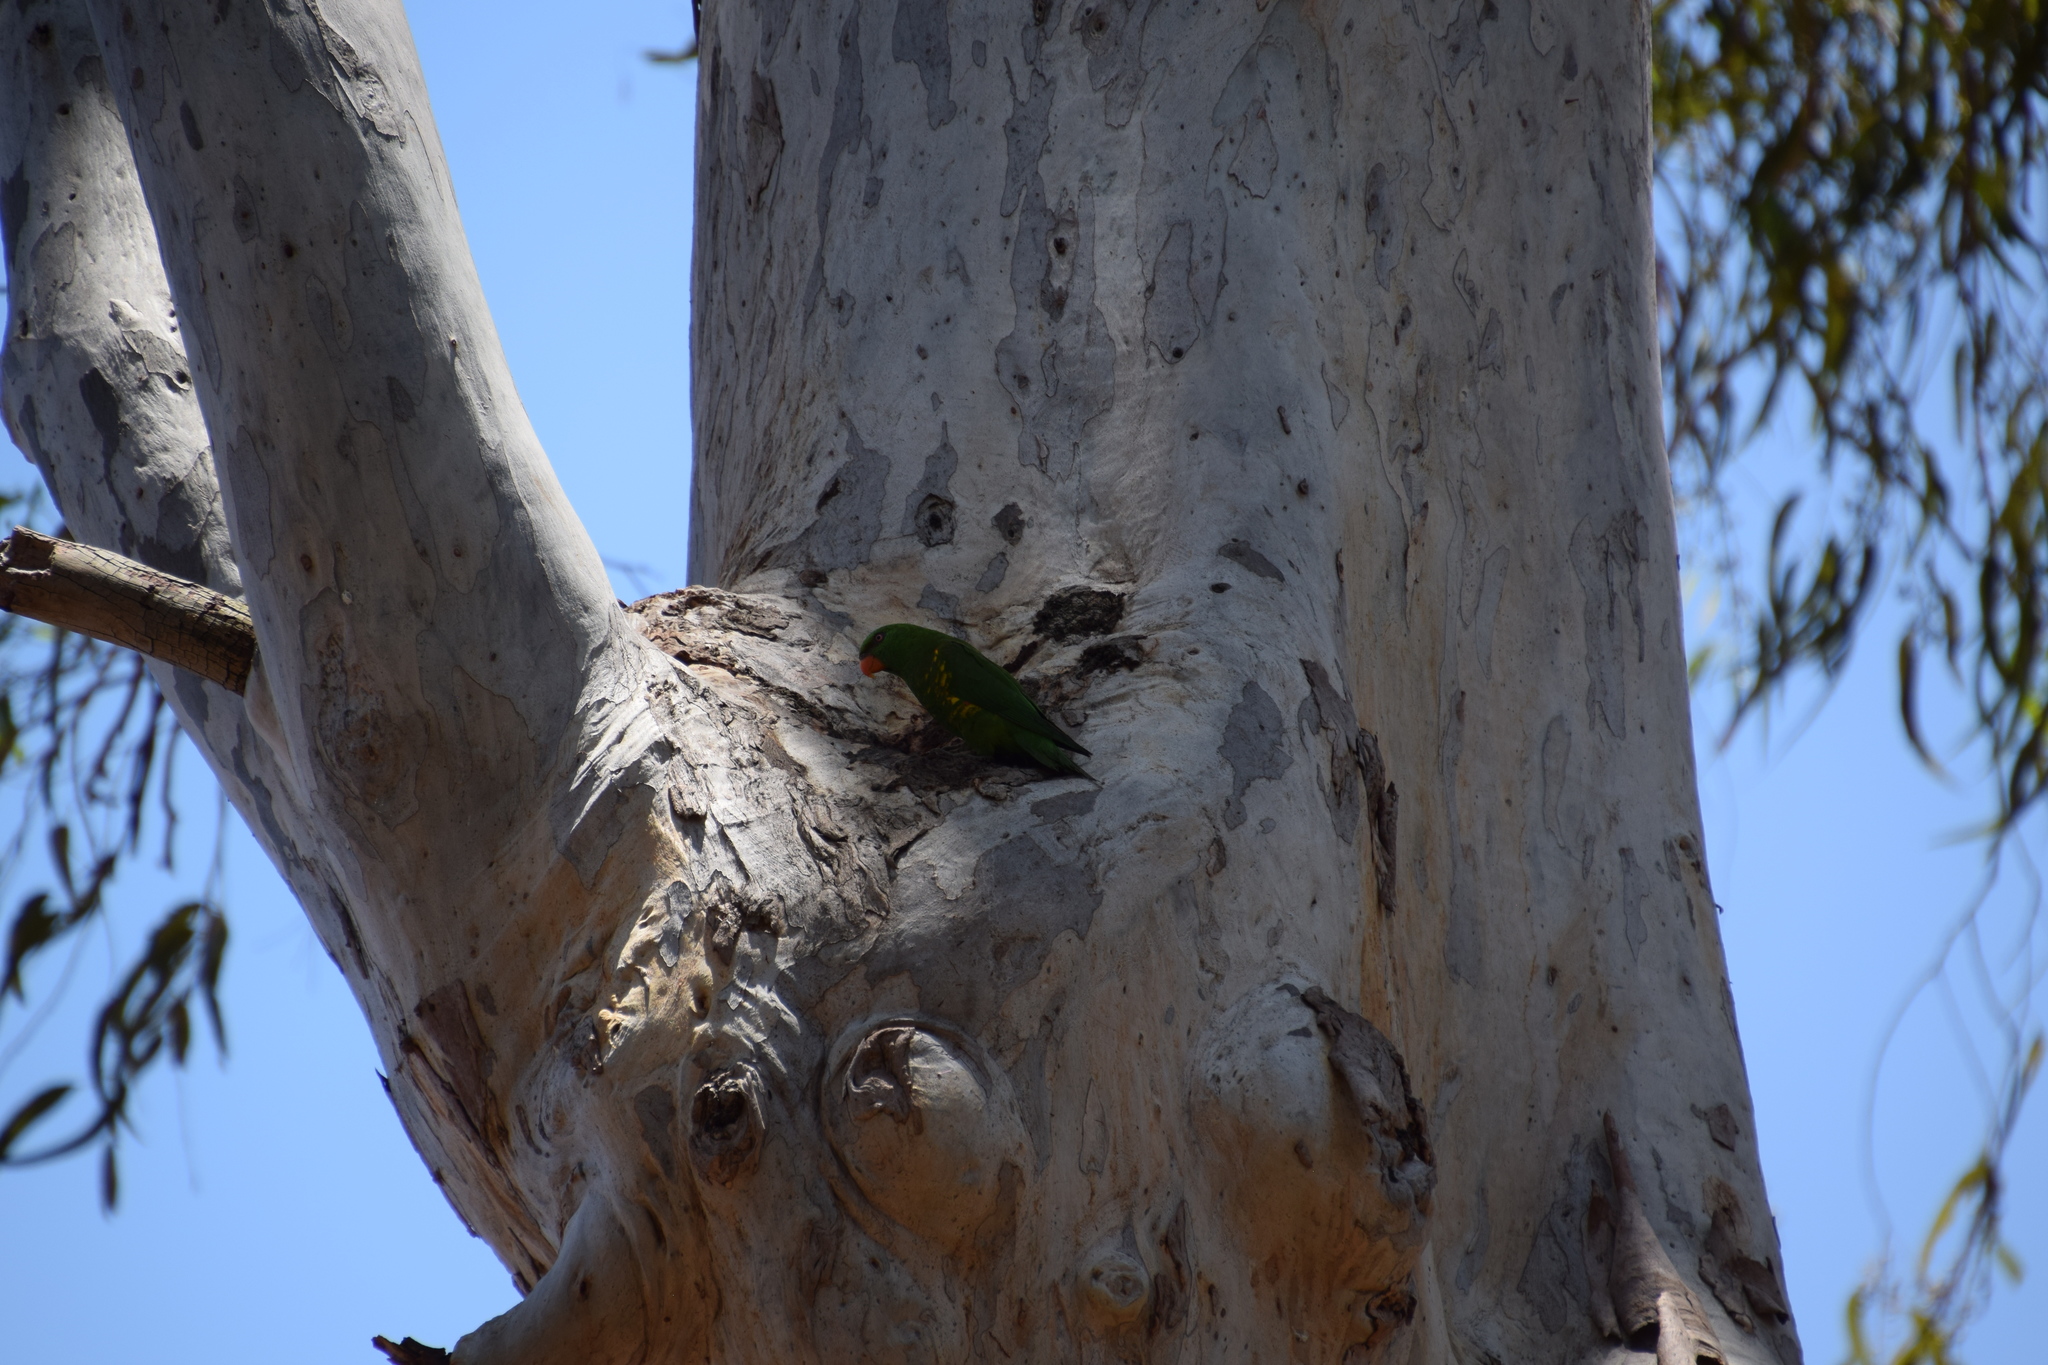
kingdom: Animalia
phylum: Chordata
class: Aves
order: Psittaciformes
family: Psittacidae
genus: Trichoglossus
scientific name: Trichoglossus chlorolepidotus
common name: Scaly-breasted lorikeet
